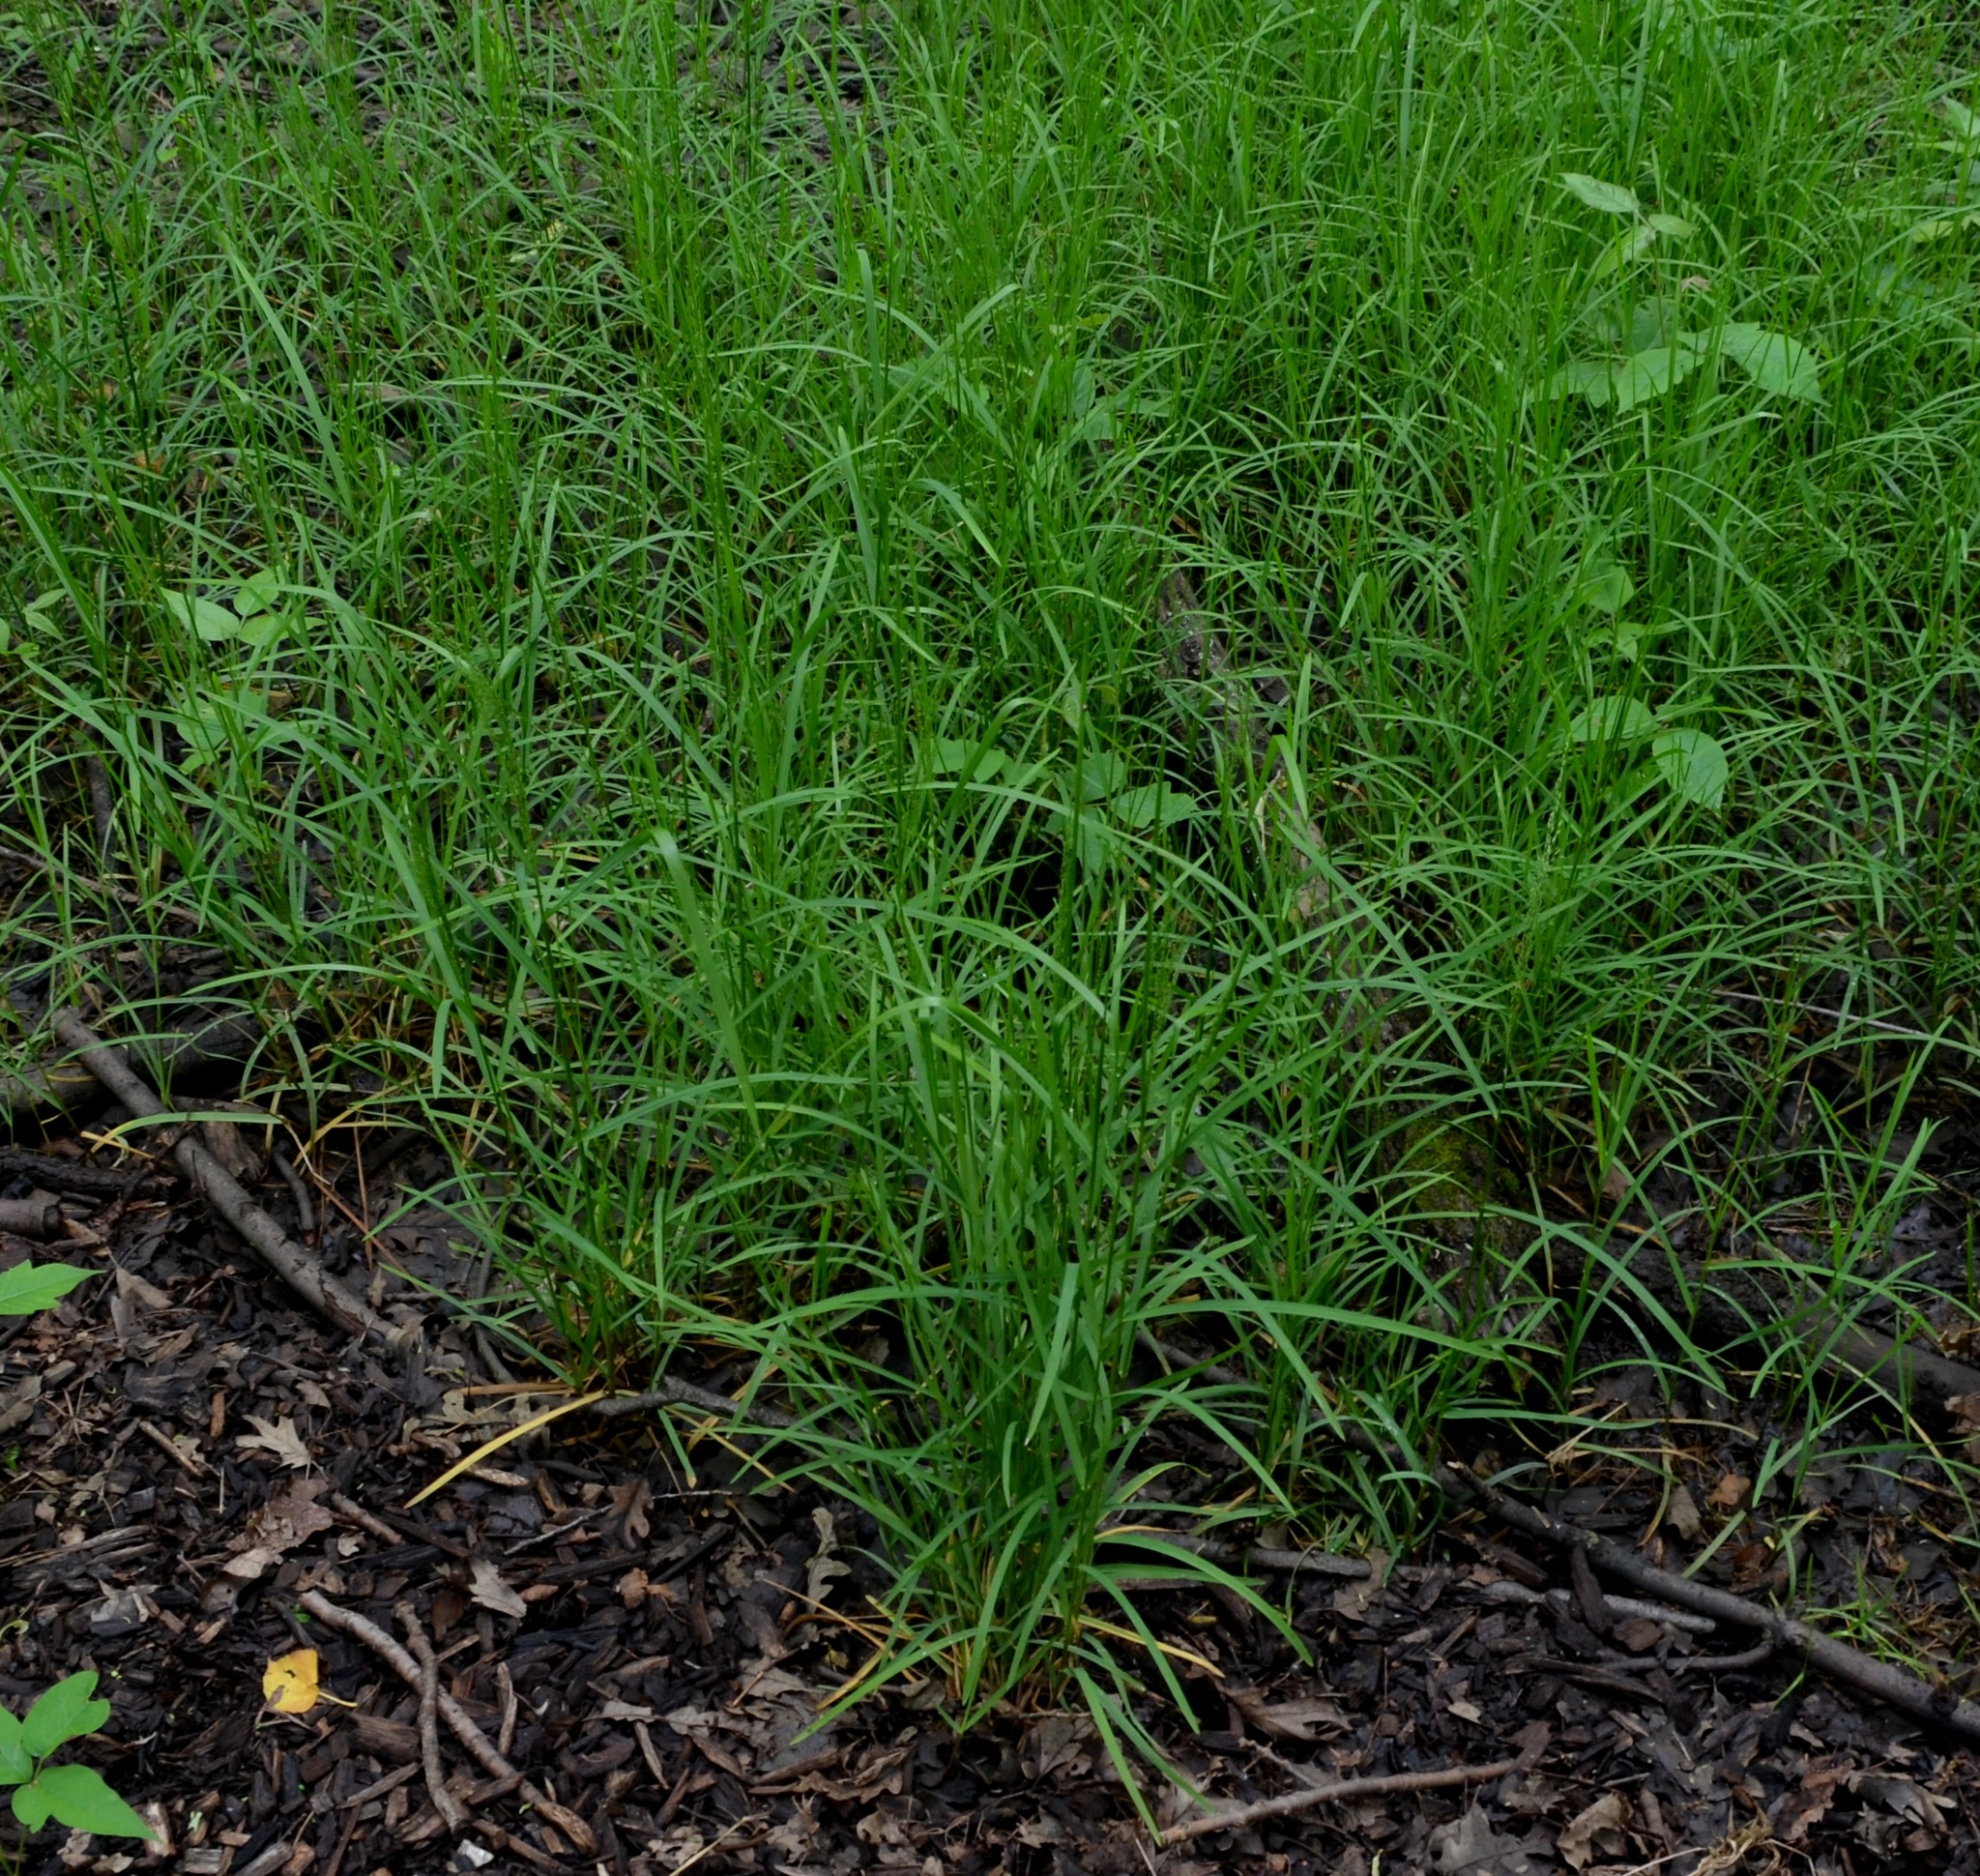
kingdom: Plantae
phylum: Tracheophyta
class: Liliopsida
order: Poales
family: Poaceae
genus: Glyceria
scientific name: Glyceria striata
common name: Fowl manna grass
